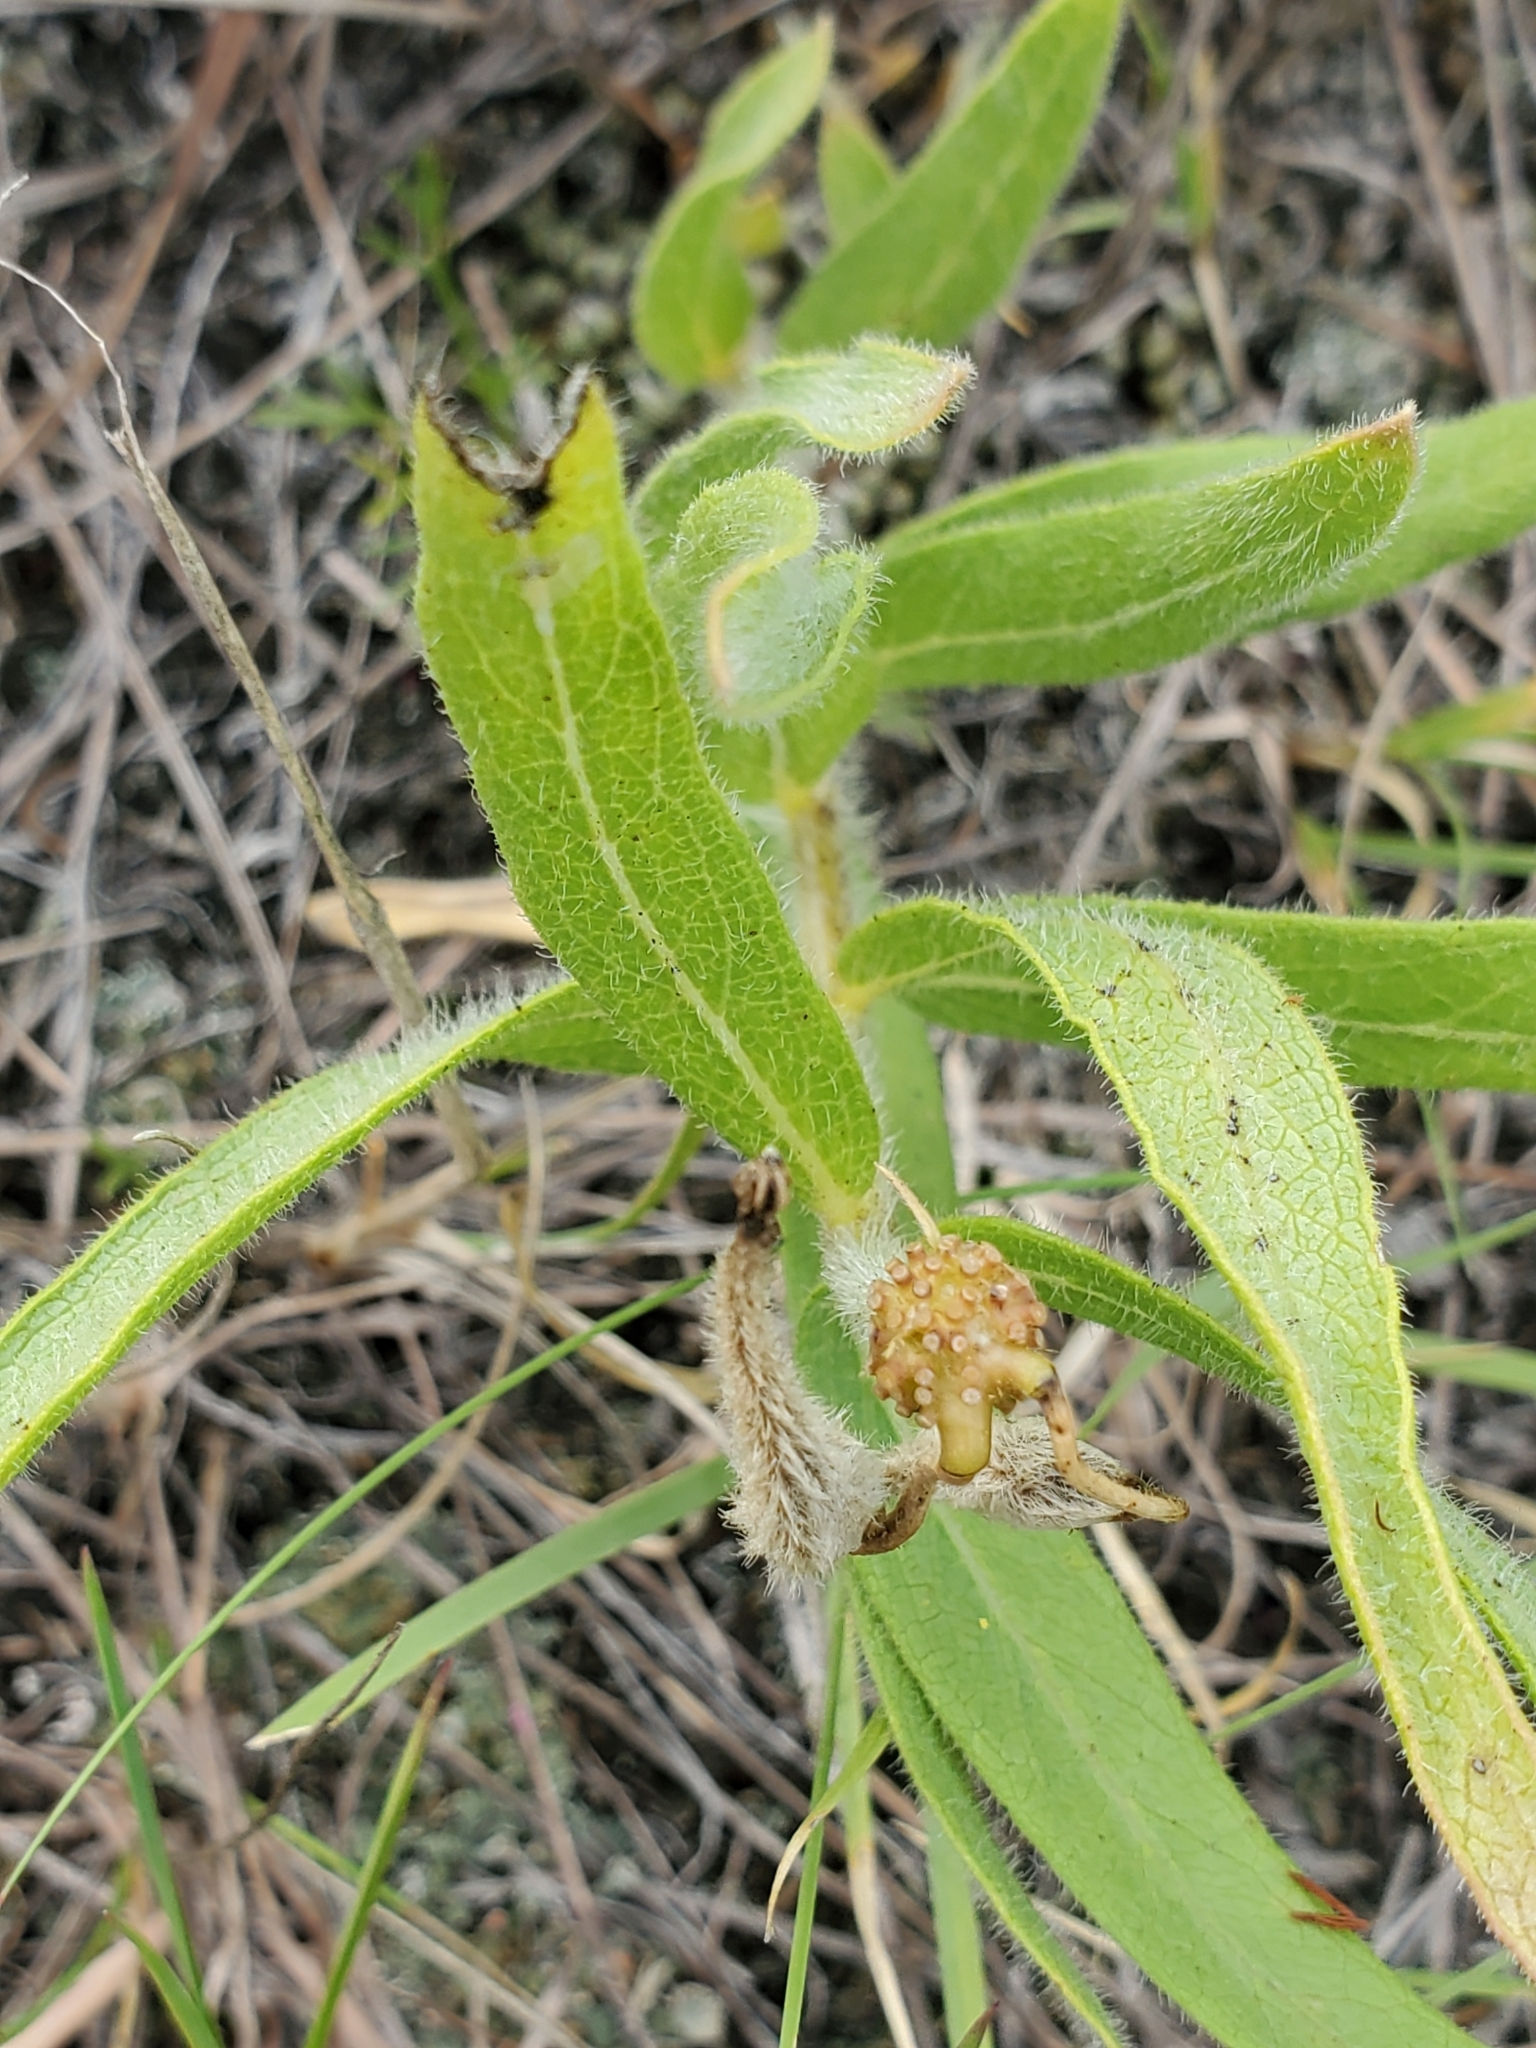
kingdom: Plantae
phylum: Tracheophyta
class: Magnoliopsida
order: Gentianales
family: Apocynaceae
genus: Asclepias
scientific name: Asclepias lanuginosa
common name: Side-cluster milkweed
